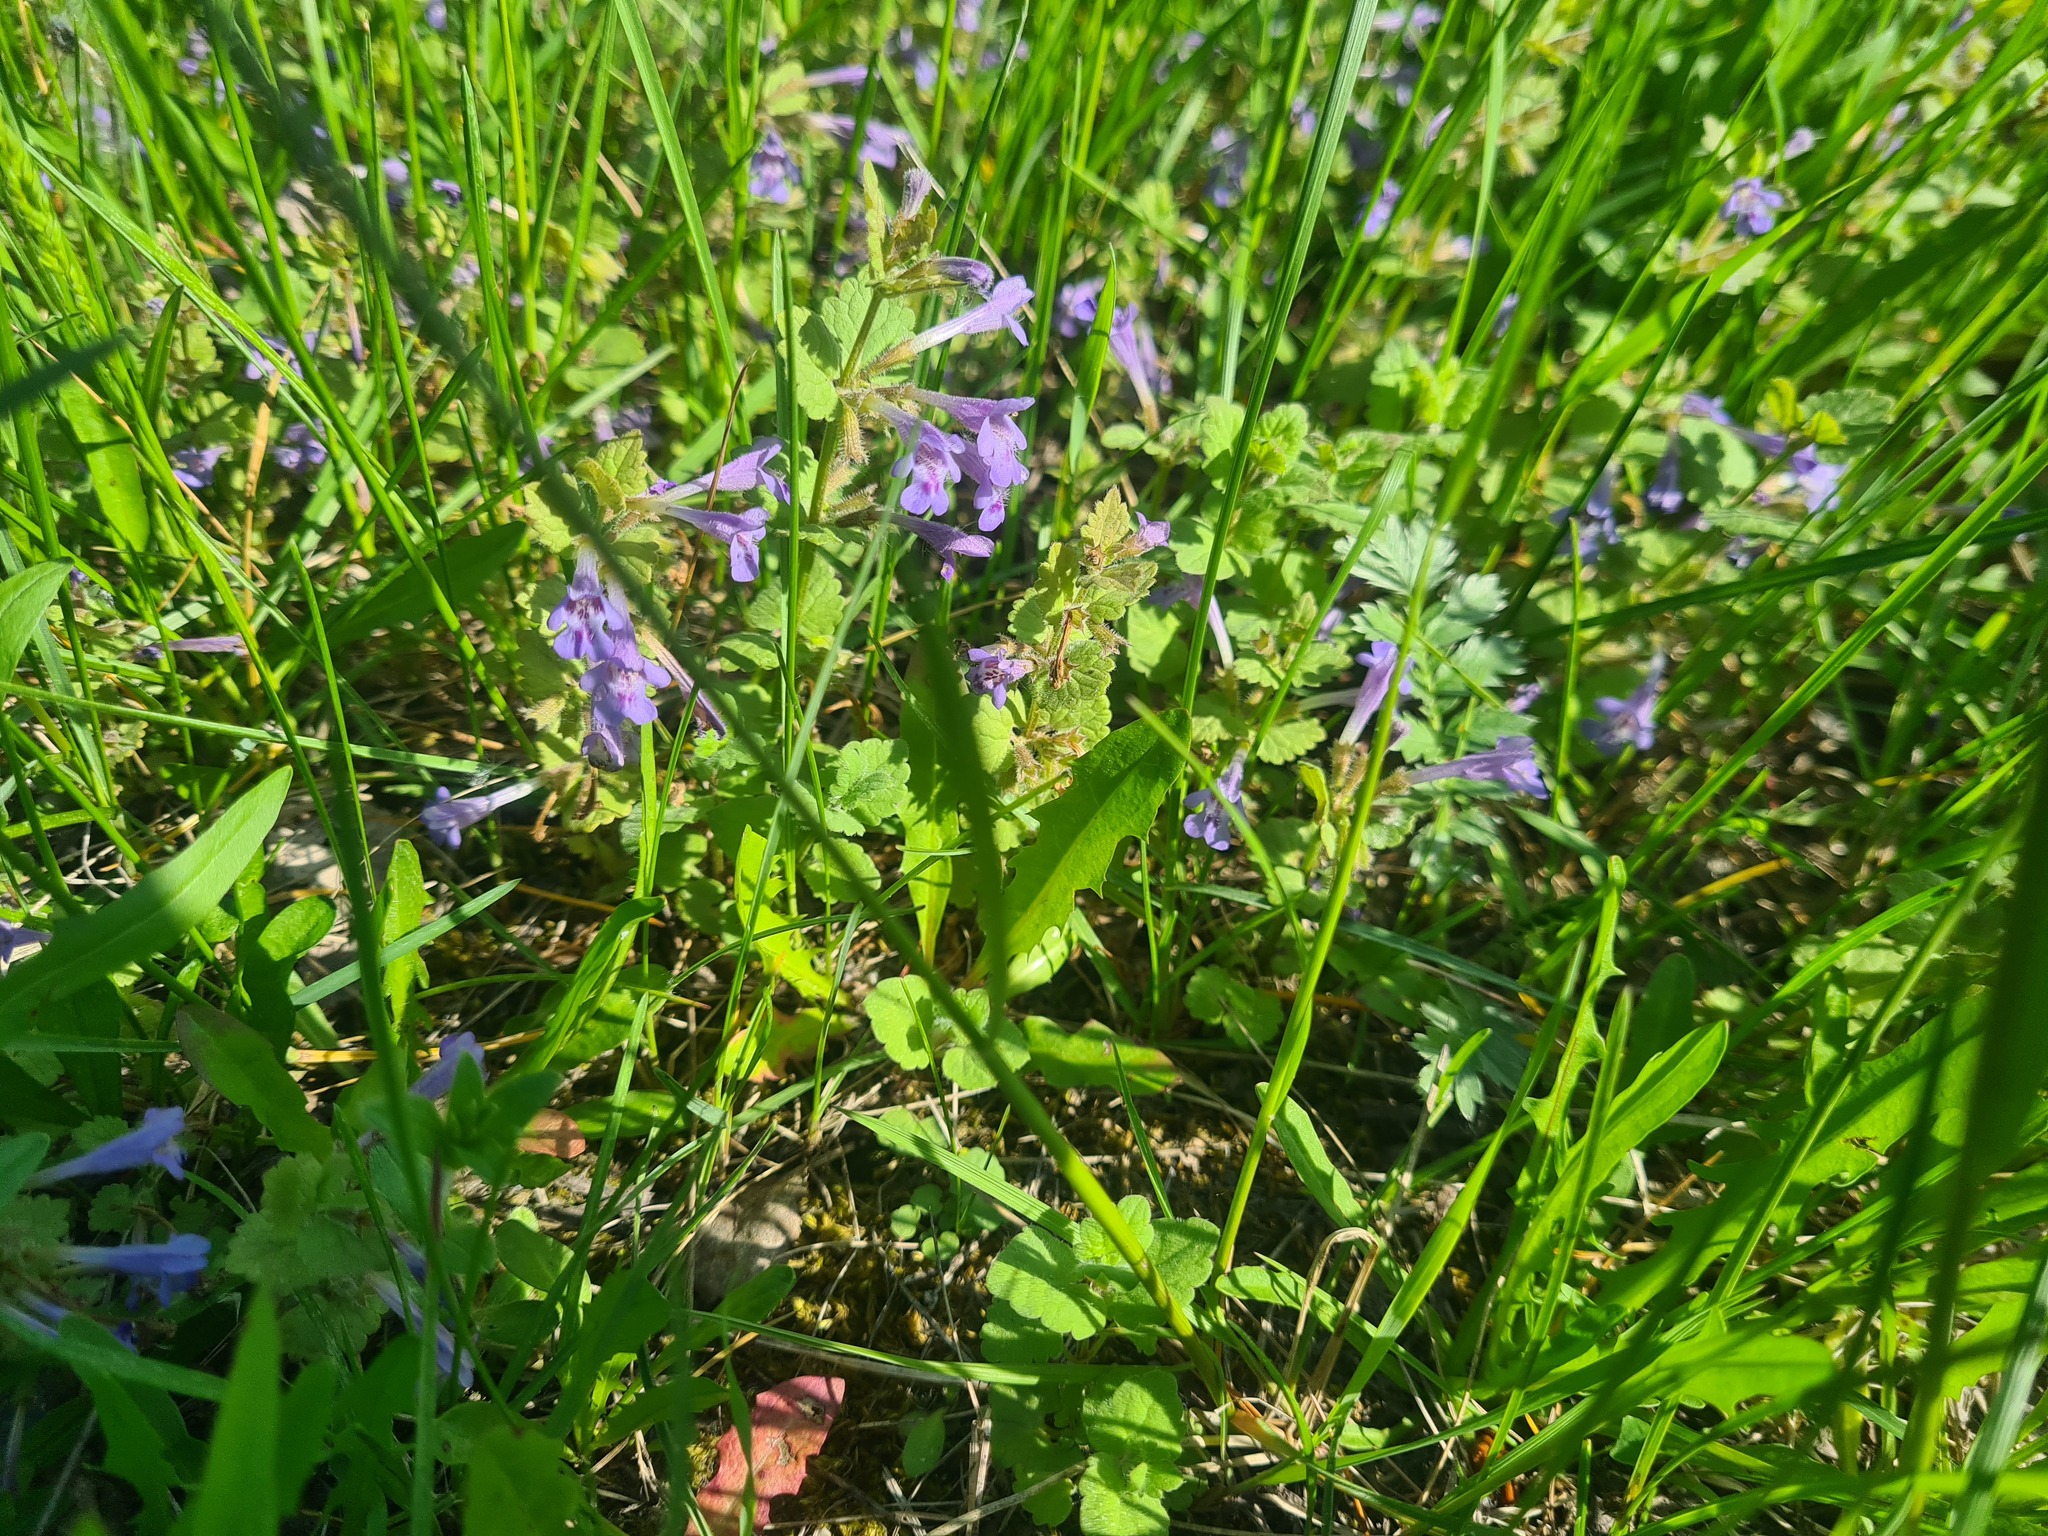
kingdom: Plantae
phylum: Tracheophyta
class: Magnoliopsida
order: Lamiales
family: Lamiaceae
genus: Glechoma
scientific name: Glechoma hederacea
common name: Ground ivy
